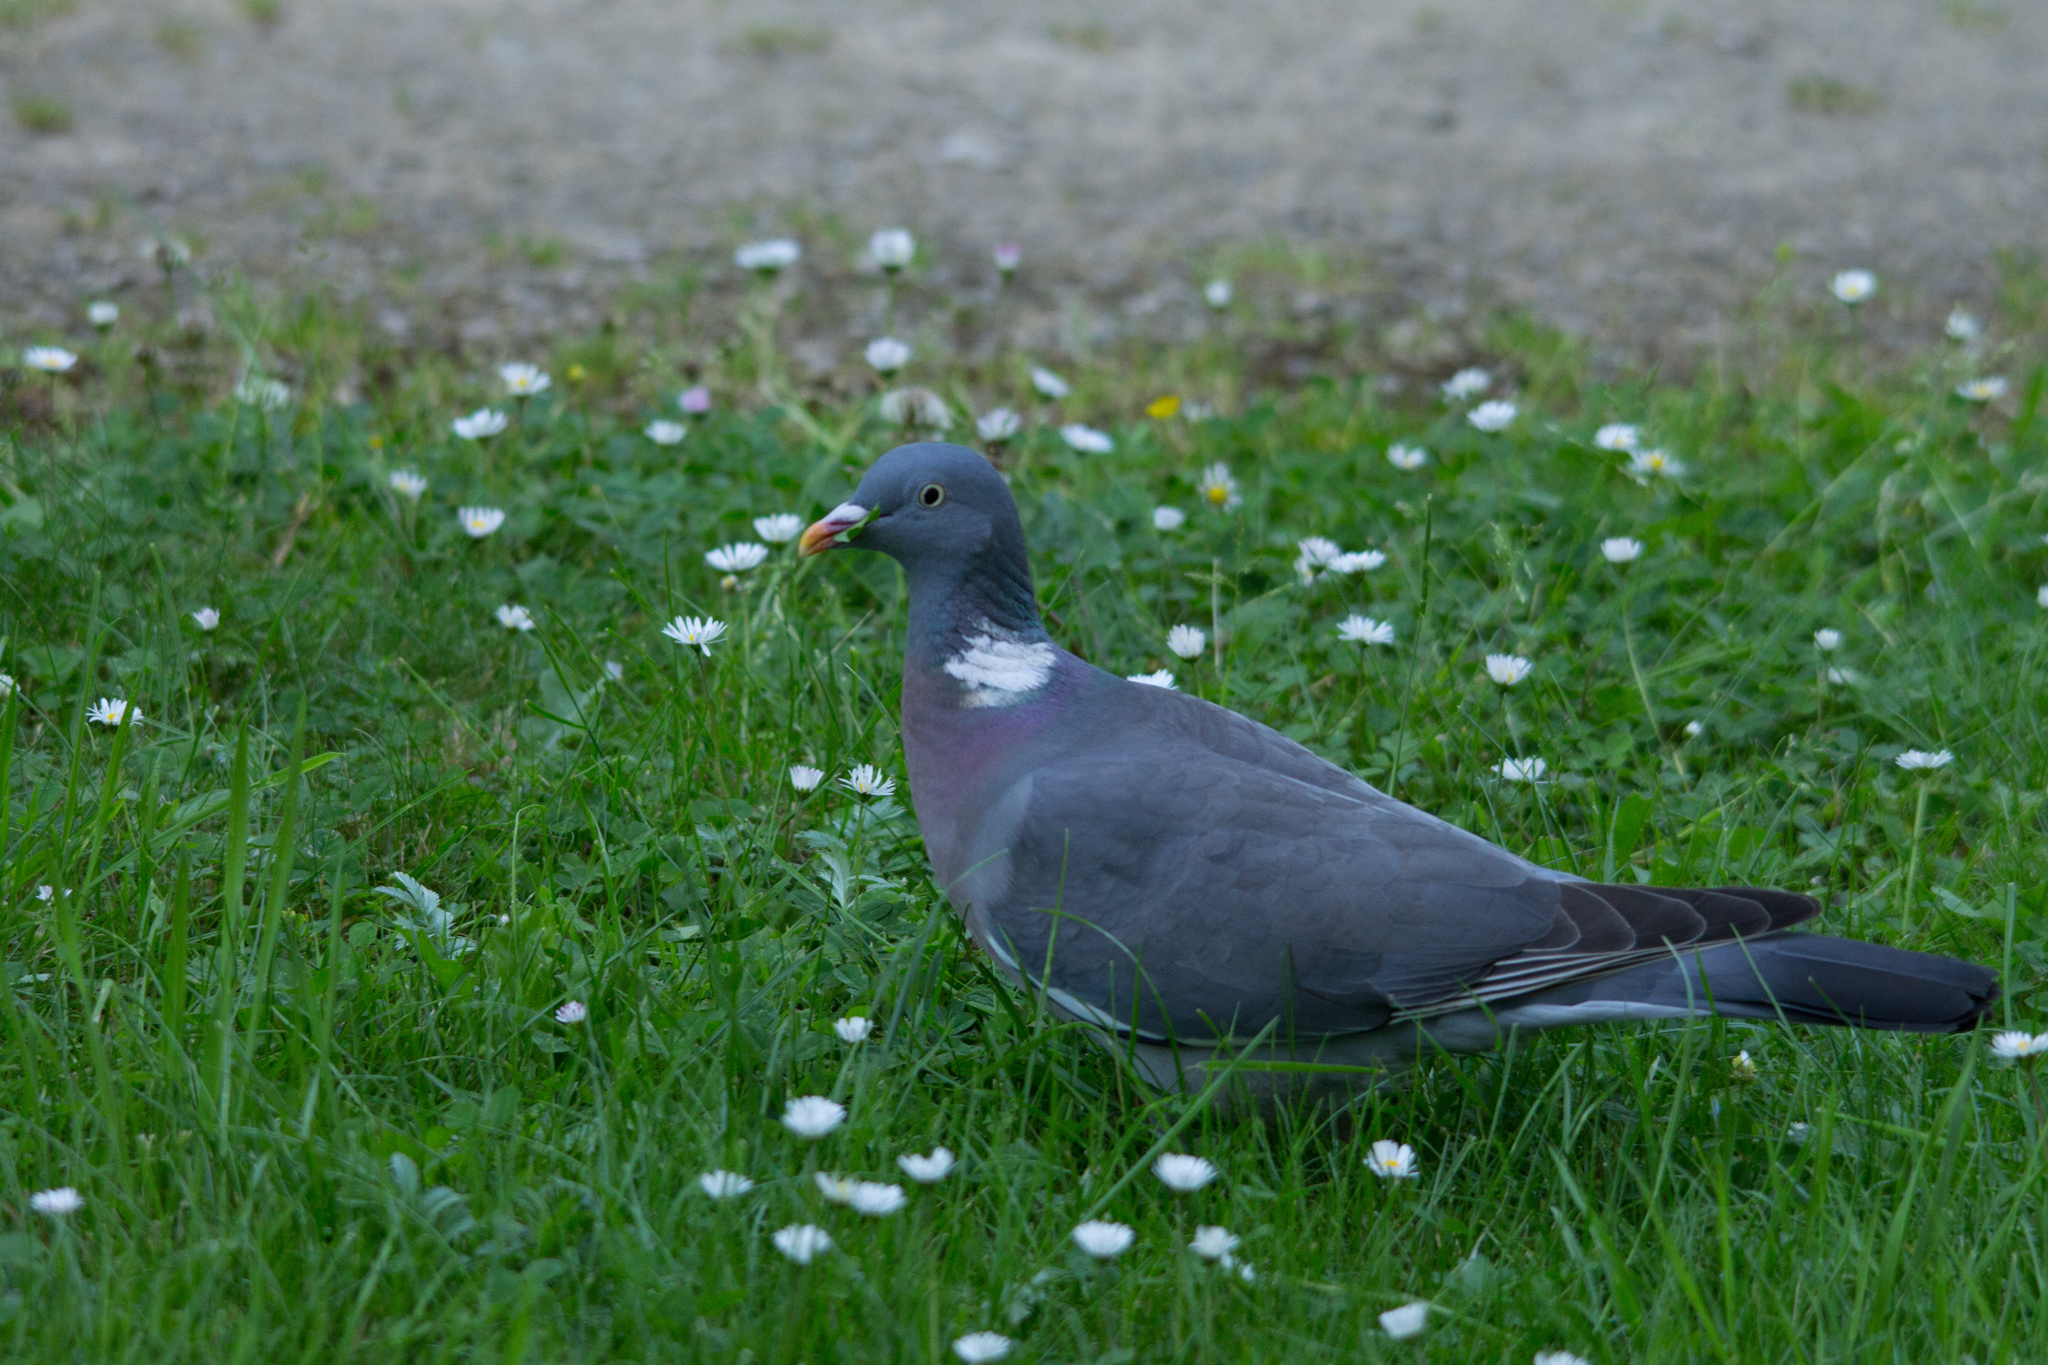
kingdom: Animalia
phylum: Chordata
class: Aves
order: Columbiformes
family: Columbidae
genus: Columba
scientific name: Columba palumbus
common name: Common wood pigeon
